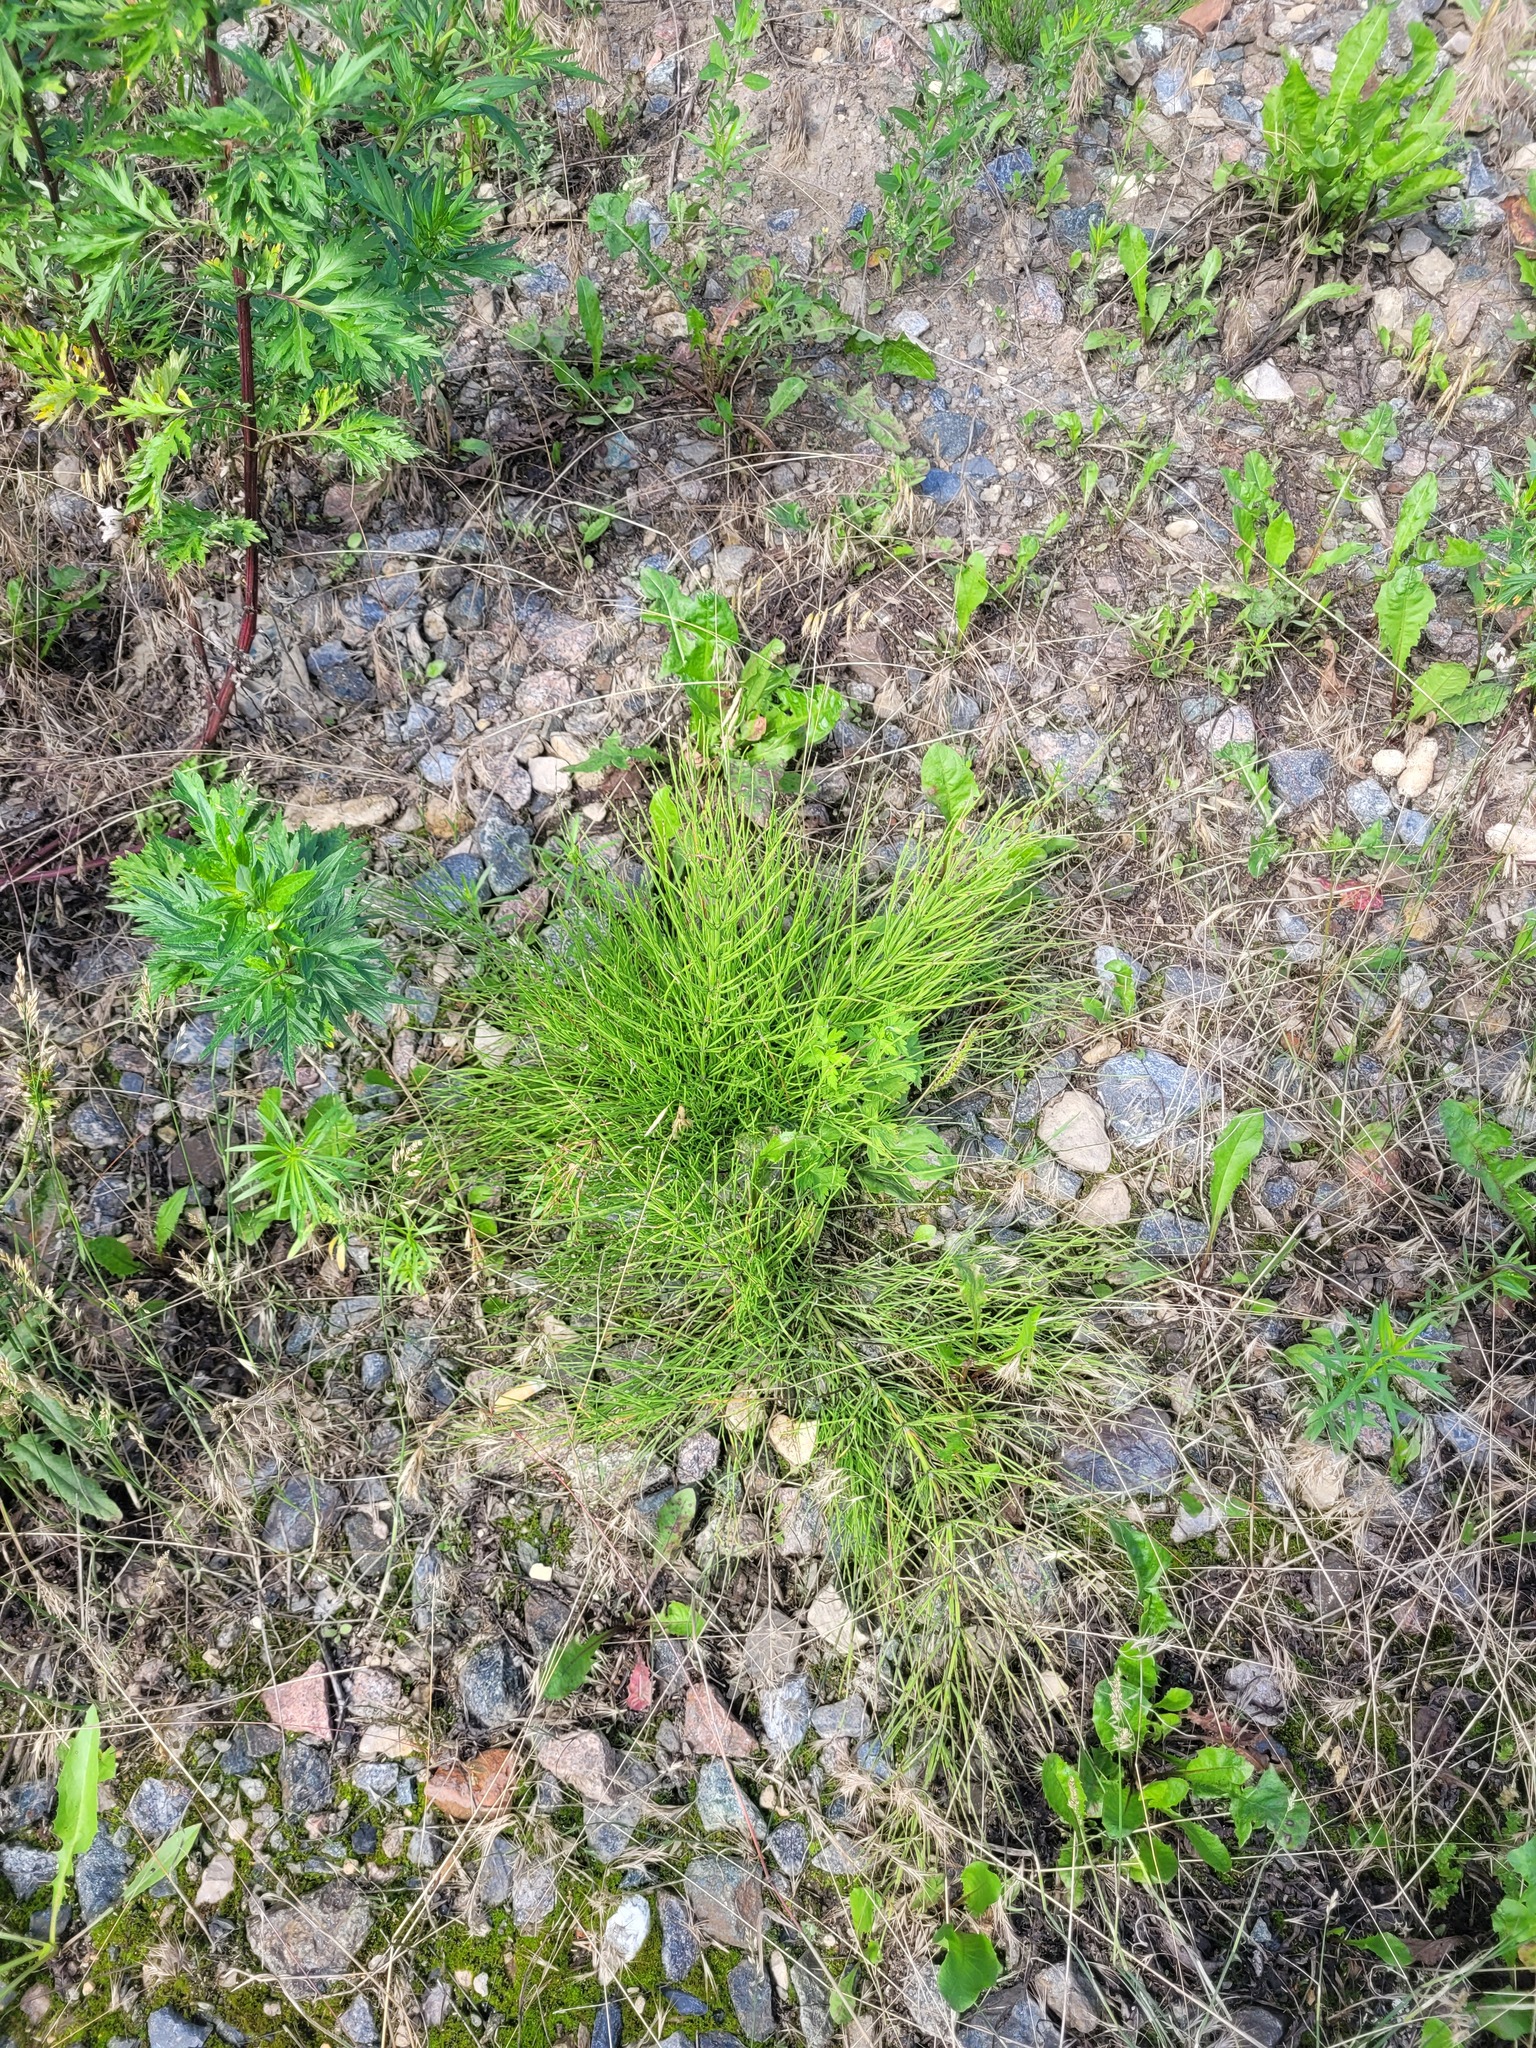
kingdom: Plantae
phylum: Tracheophyta
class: Polypodiopsida
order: Equisetales
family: Equisetaceae
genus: Equisetum
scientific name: Equisetum arvense
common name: Field horsetail
